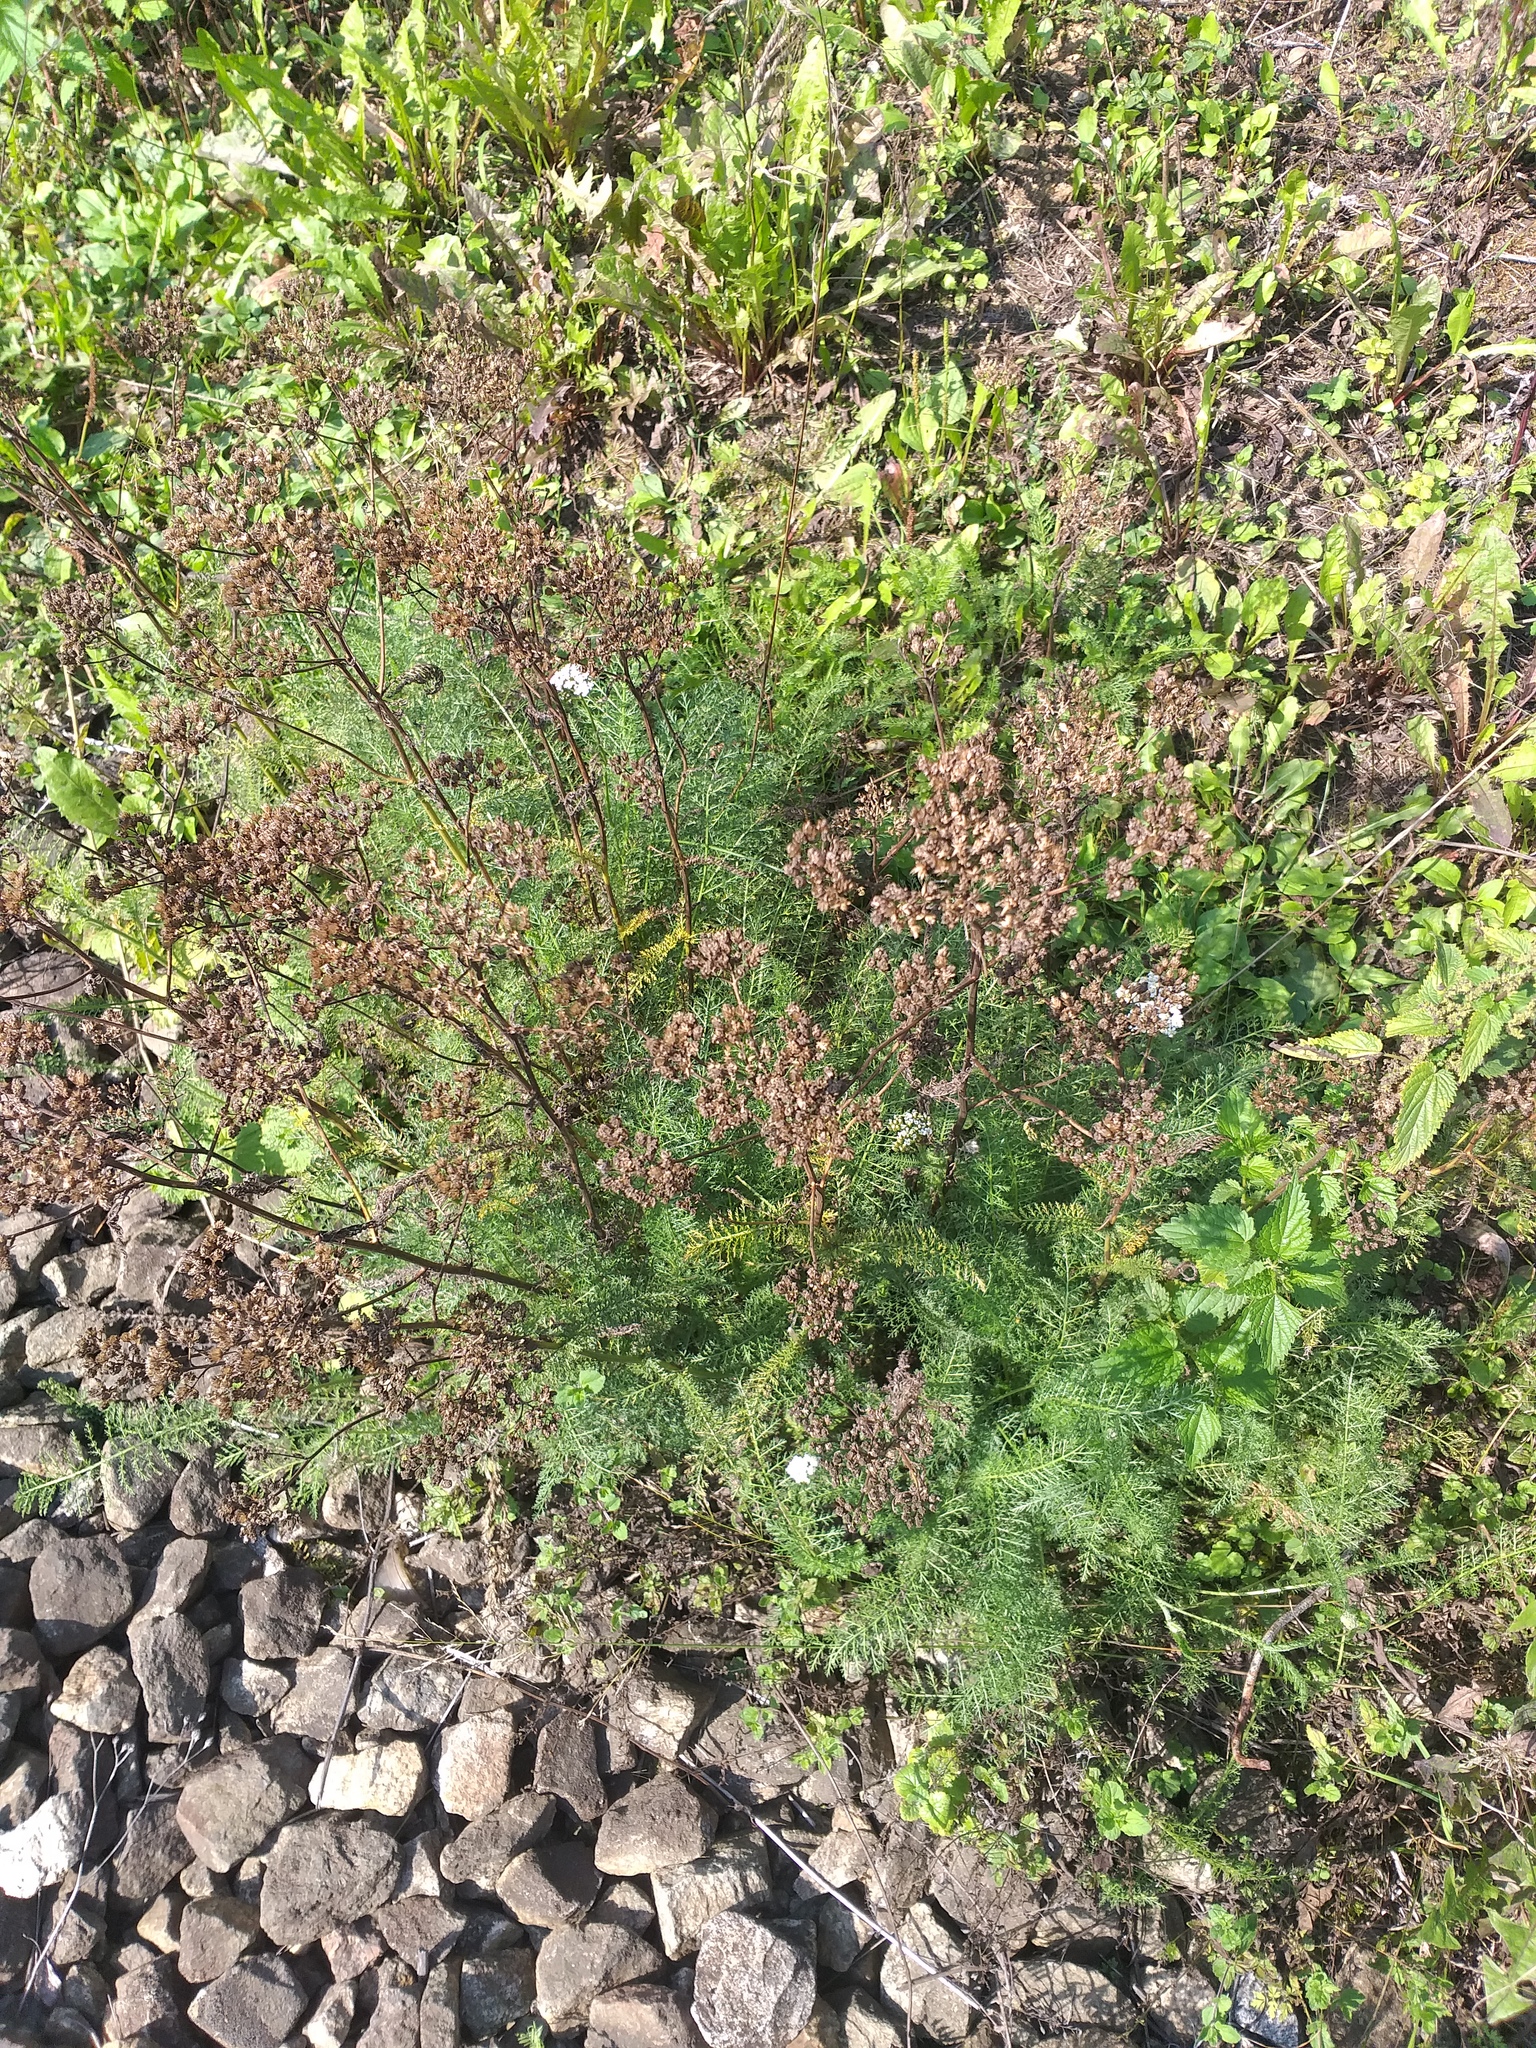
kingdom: Plantae
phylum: Tracheophyta
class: Magnoliopsida
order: Asterales
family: Asteraceae
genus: Achillea
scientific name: Achillea millefolium
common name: Yarrow
